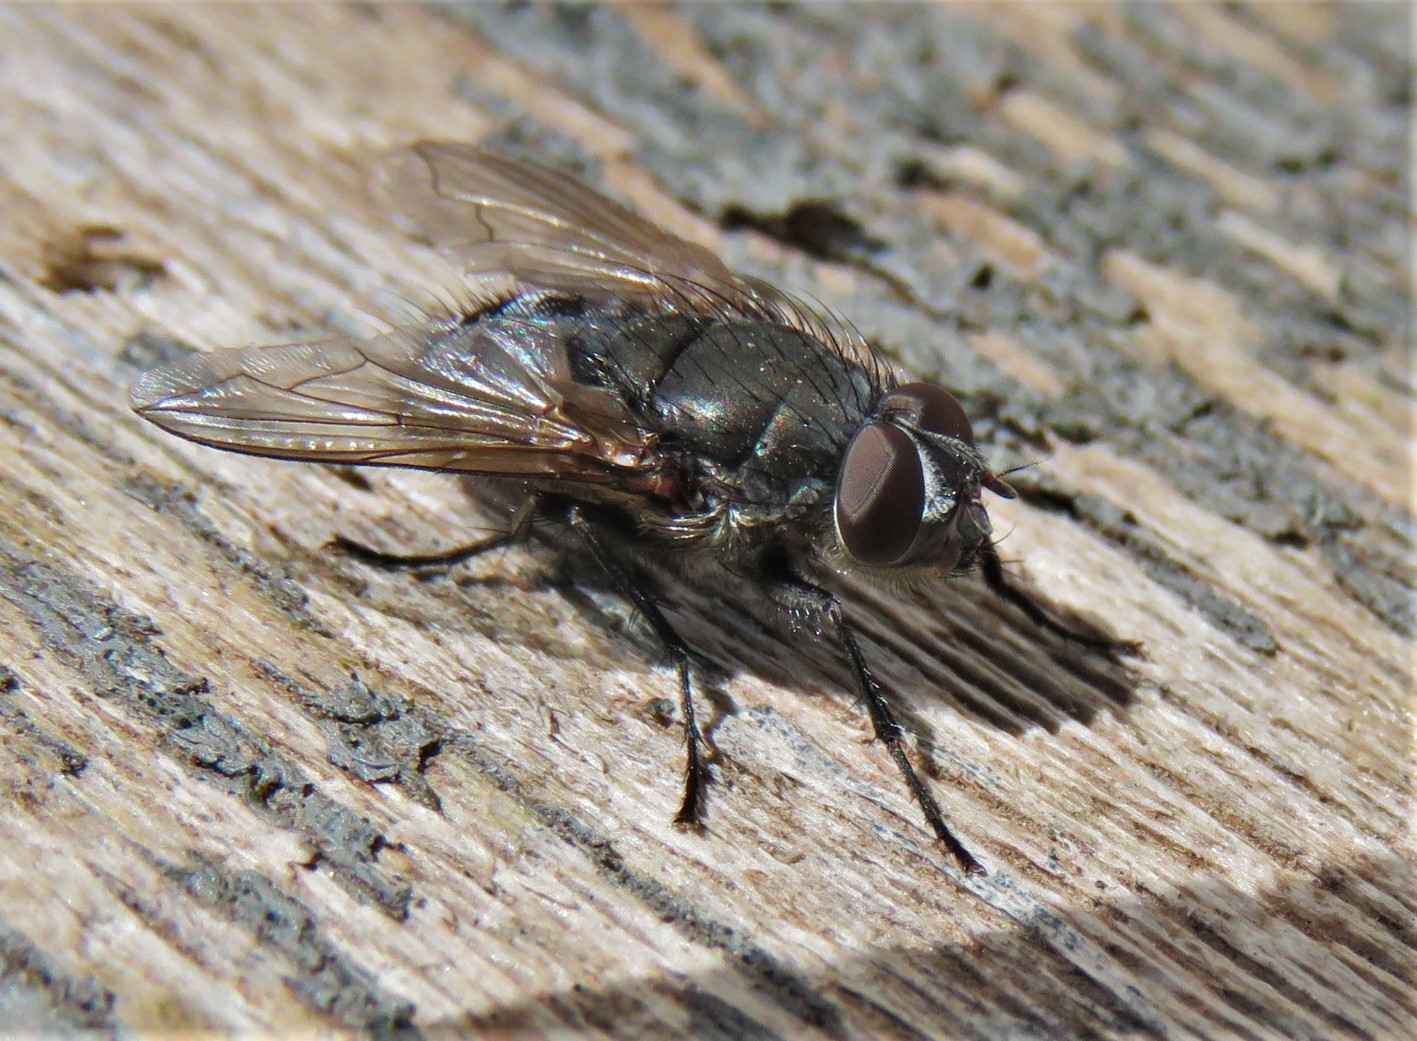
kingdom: Animalia
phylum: Arthropoda
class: Insecta
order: Diptera
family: Polleniidae
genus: Pollenia
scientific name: Pollenia
